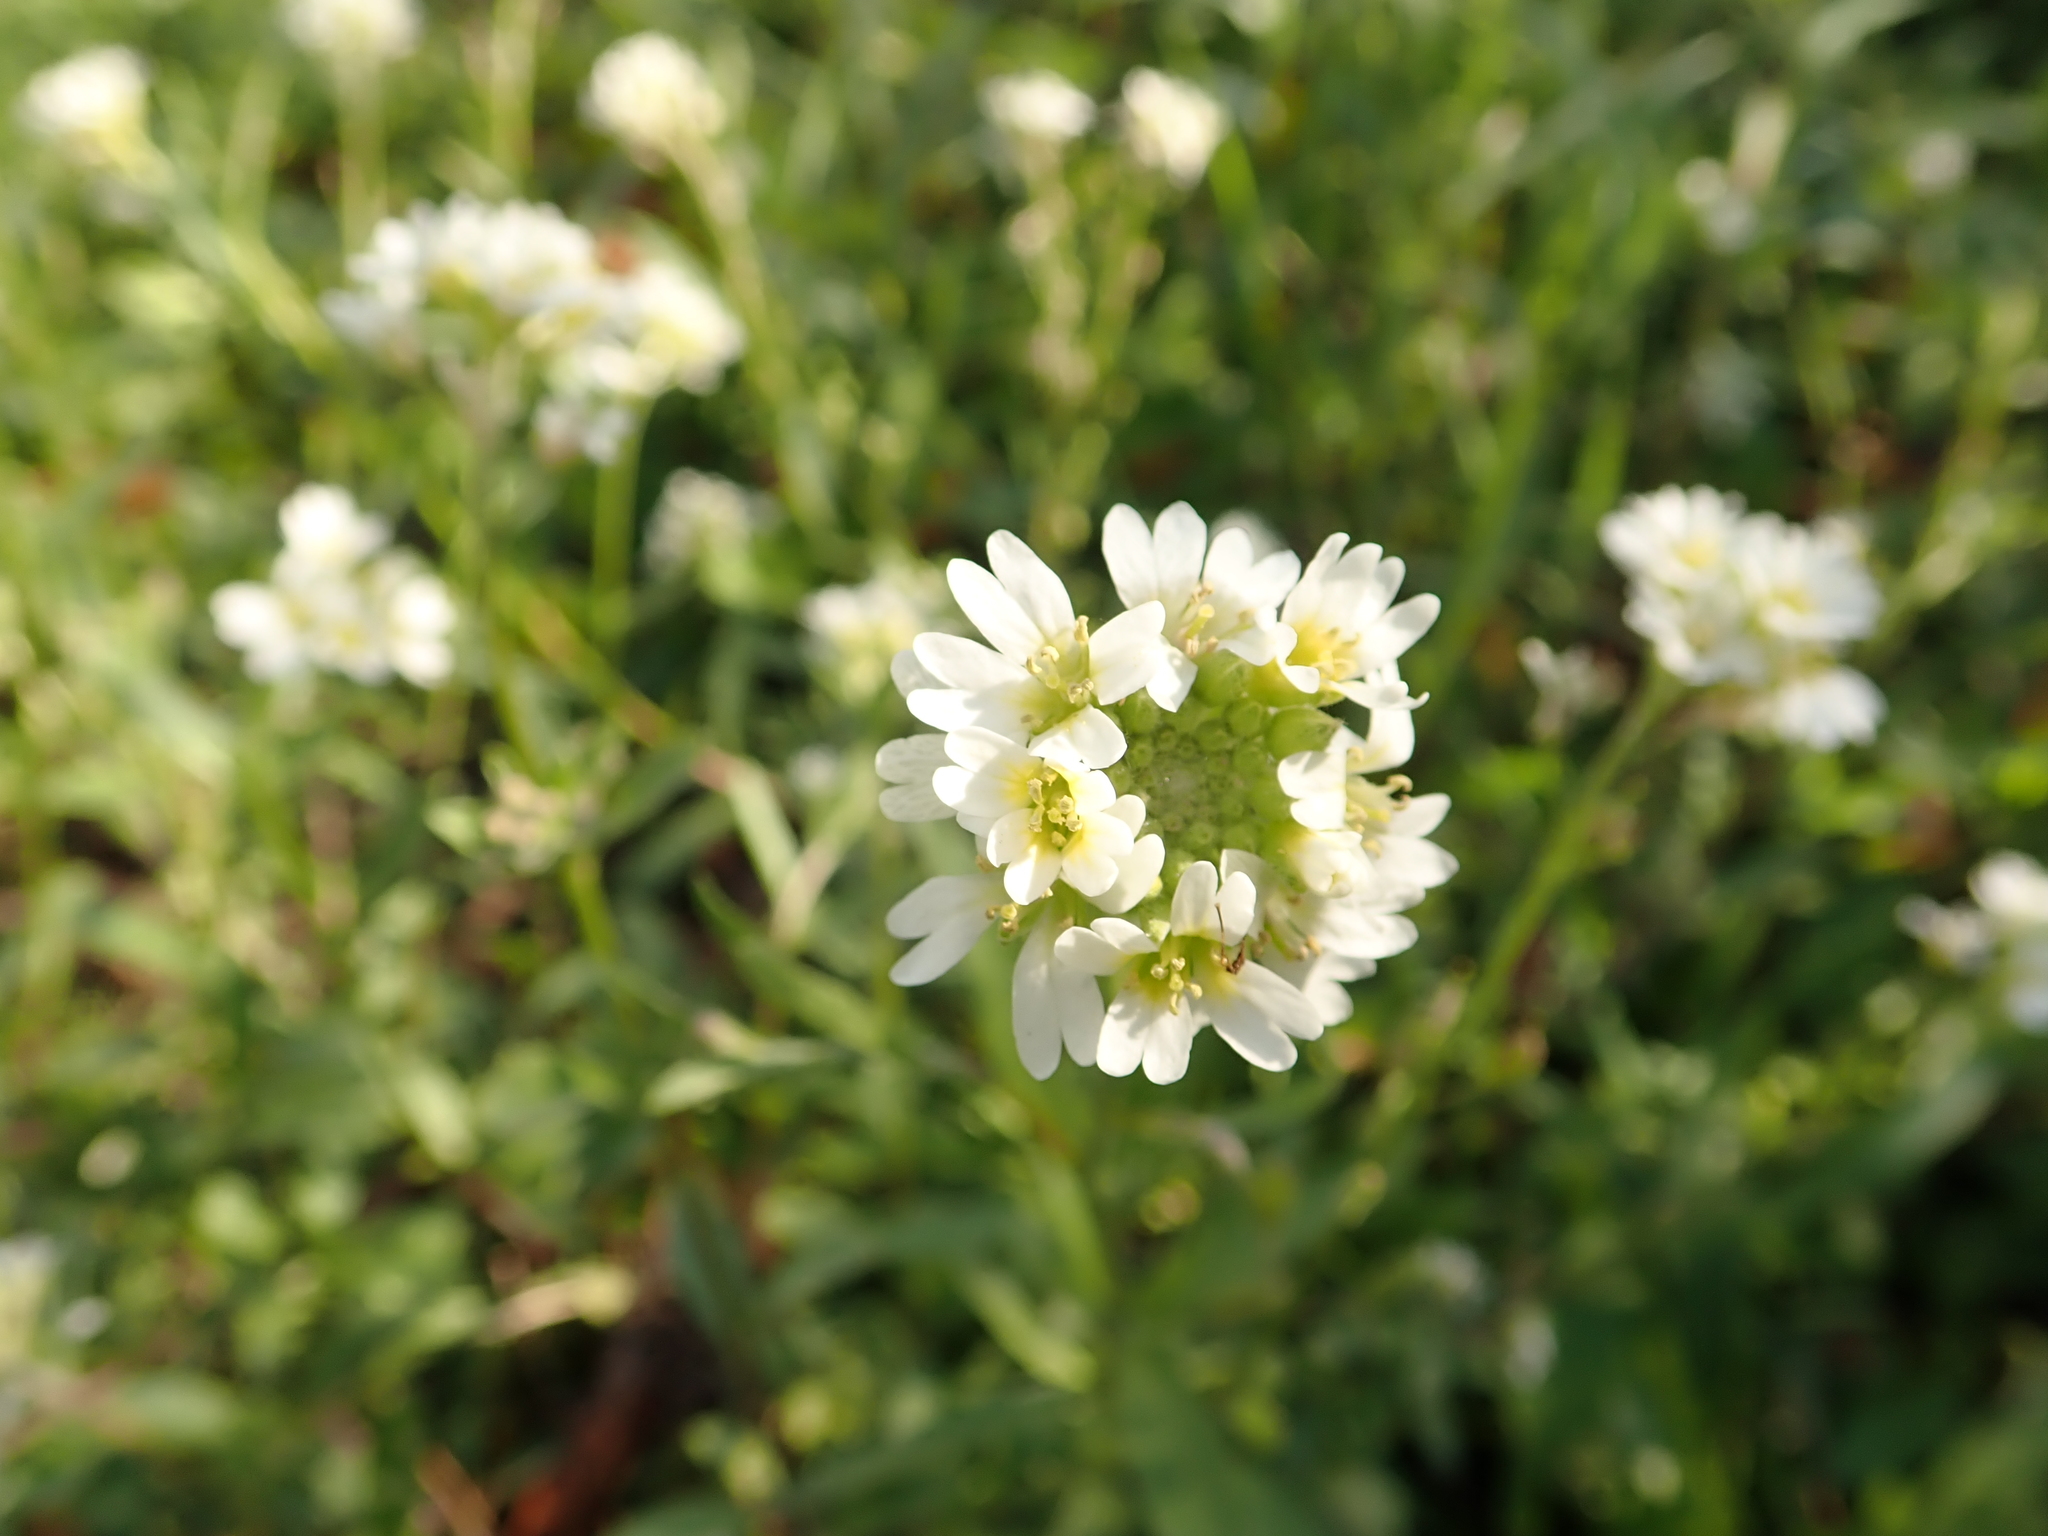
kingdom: Plantae
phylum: Tracheophyta
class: Magnoliopsida
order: Brassicales
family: Brassicaceae
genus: Berteroa
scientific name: Berteroa incana
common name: Hoary alison
